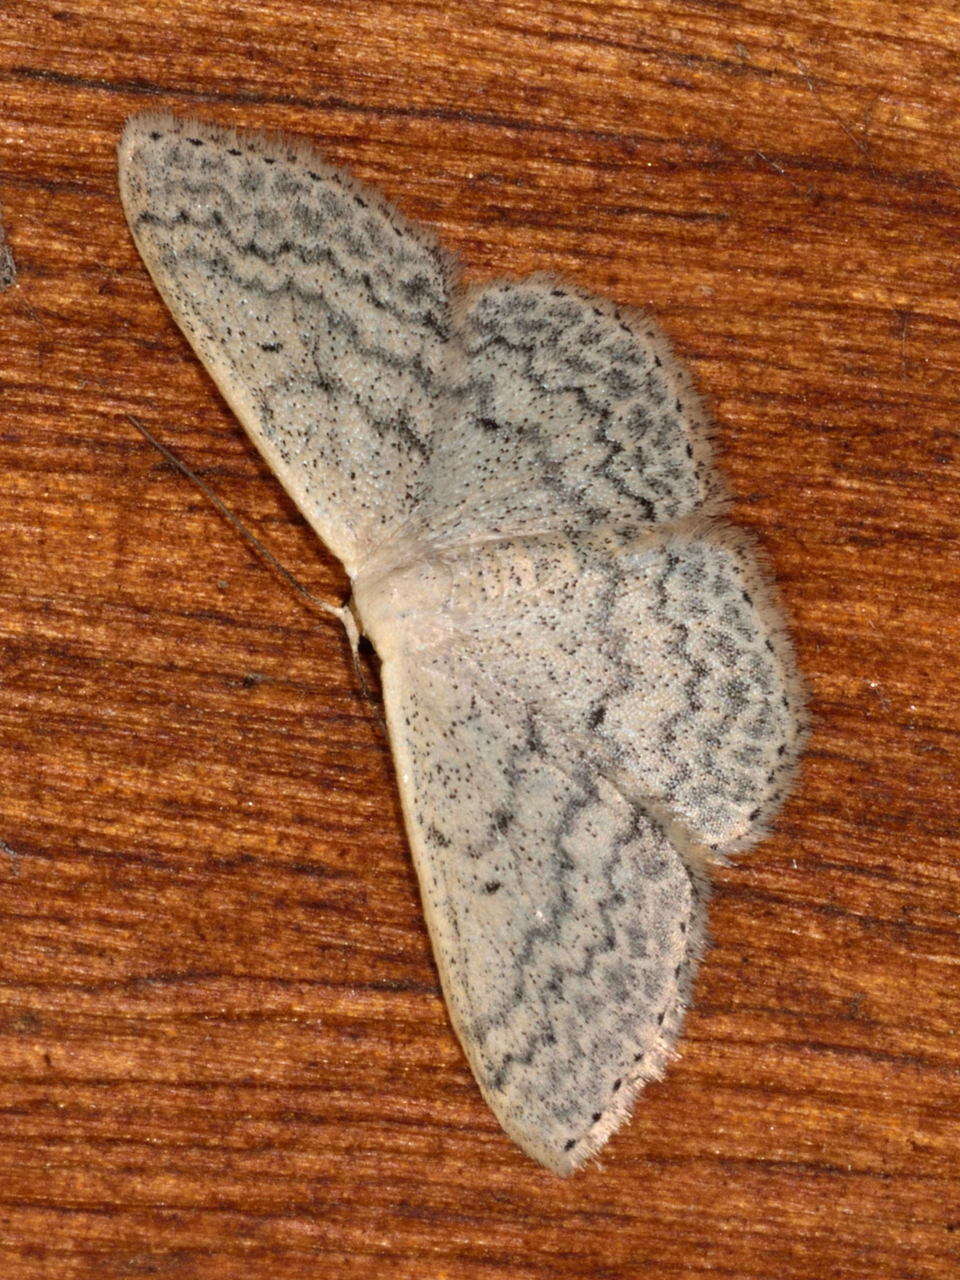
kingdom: Animalia
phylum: Arthropoda
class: Insecta
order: Lepidoptera
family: Geometridae
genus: Scopula
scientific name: Scopula optivata
